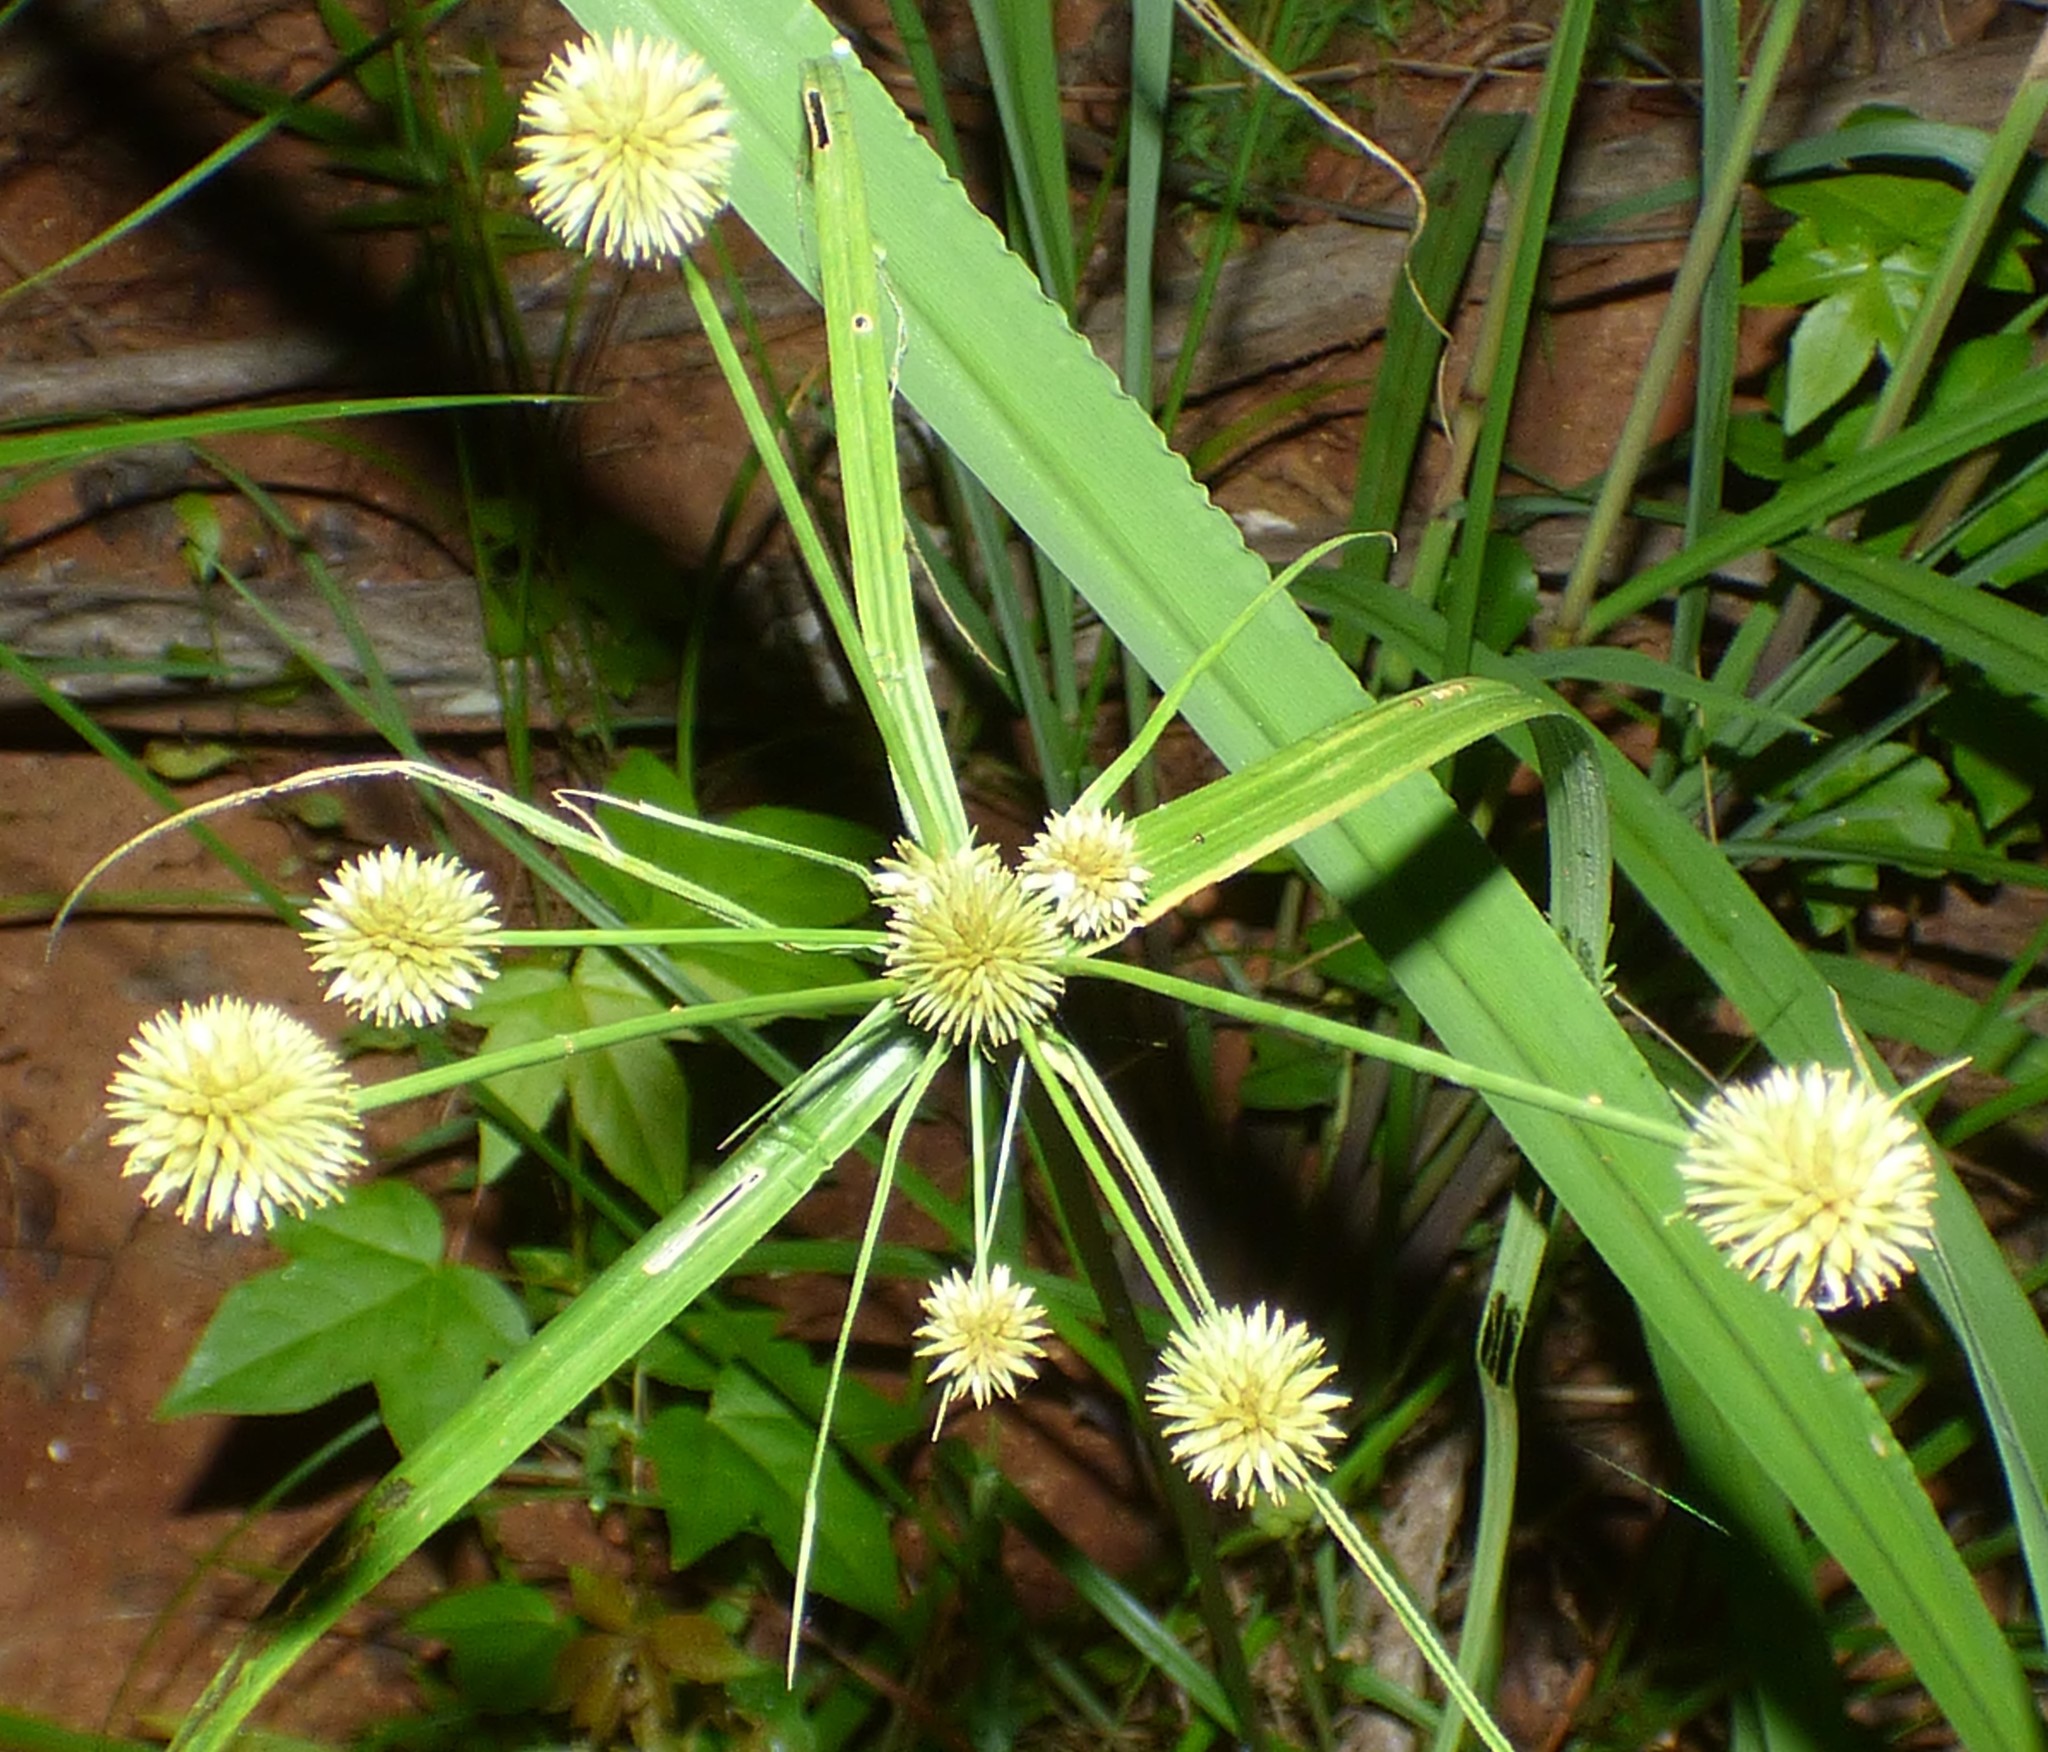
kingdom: Plantae
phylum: Tracheophyta
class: Liliopsida
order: Poales
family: Cyperaceae
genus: Cyperus
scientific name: Cyperus echinatus
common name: Teasel sedge
